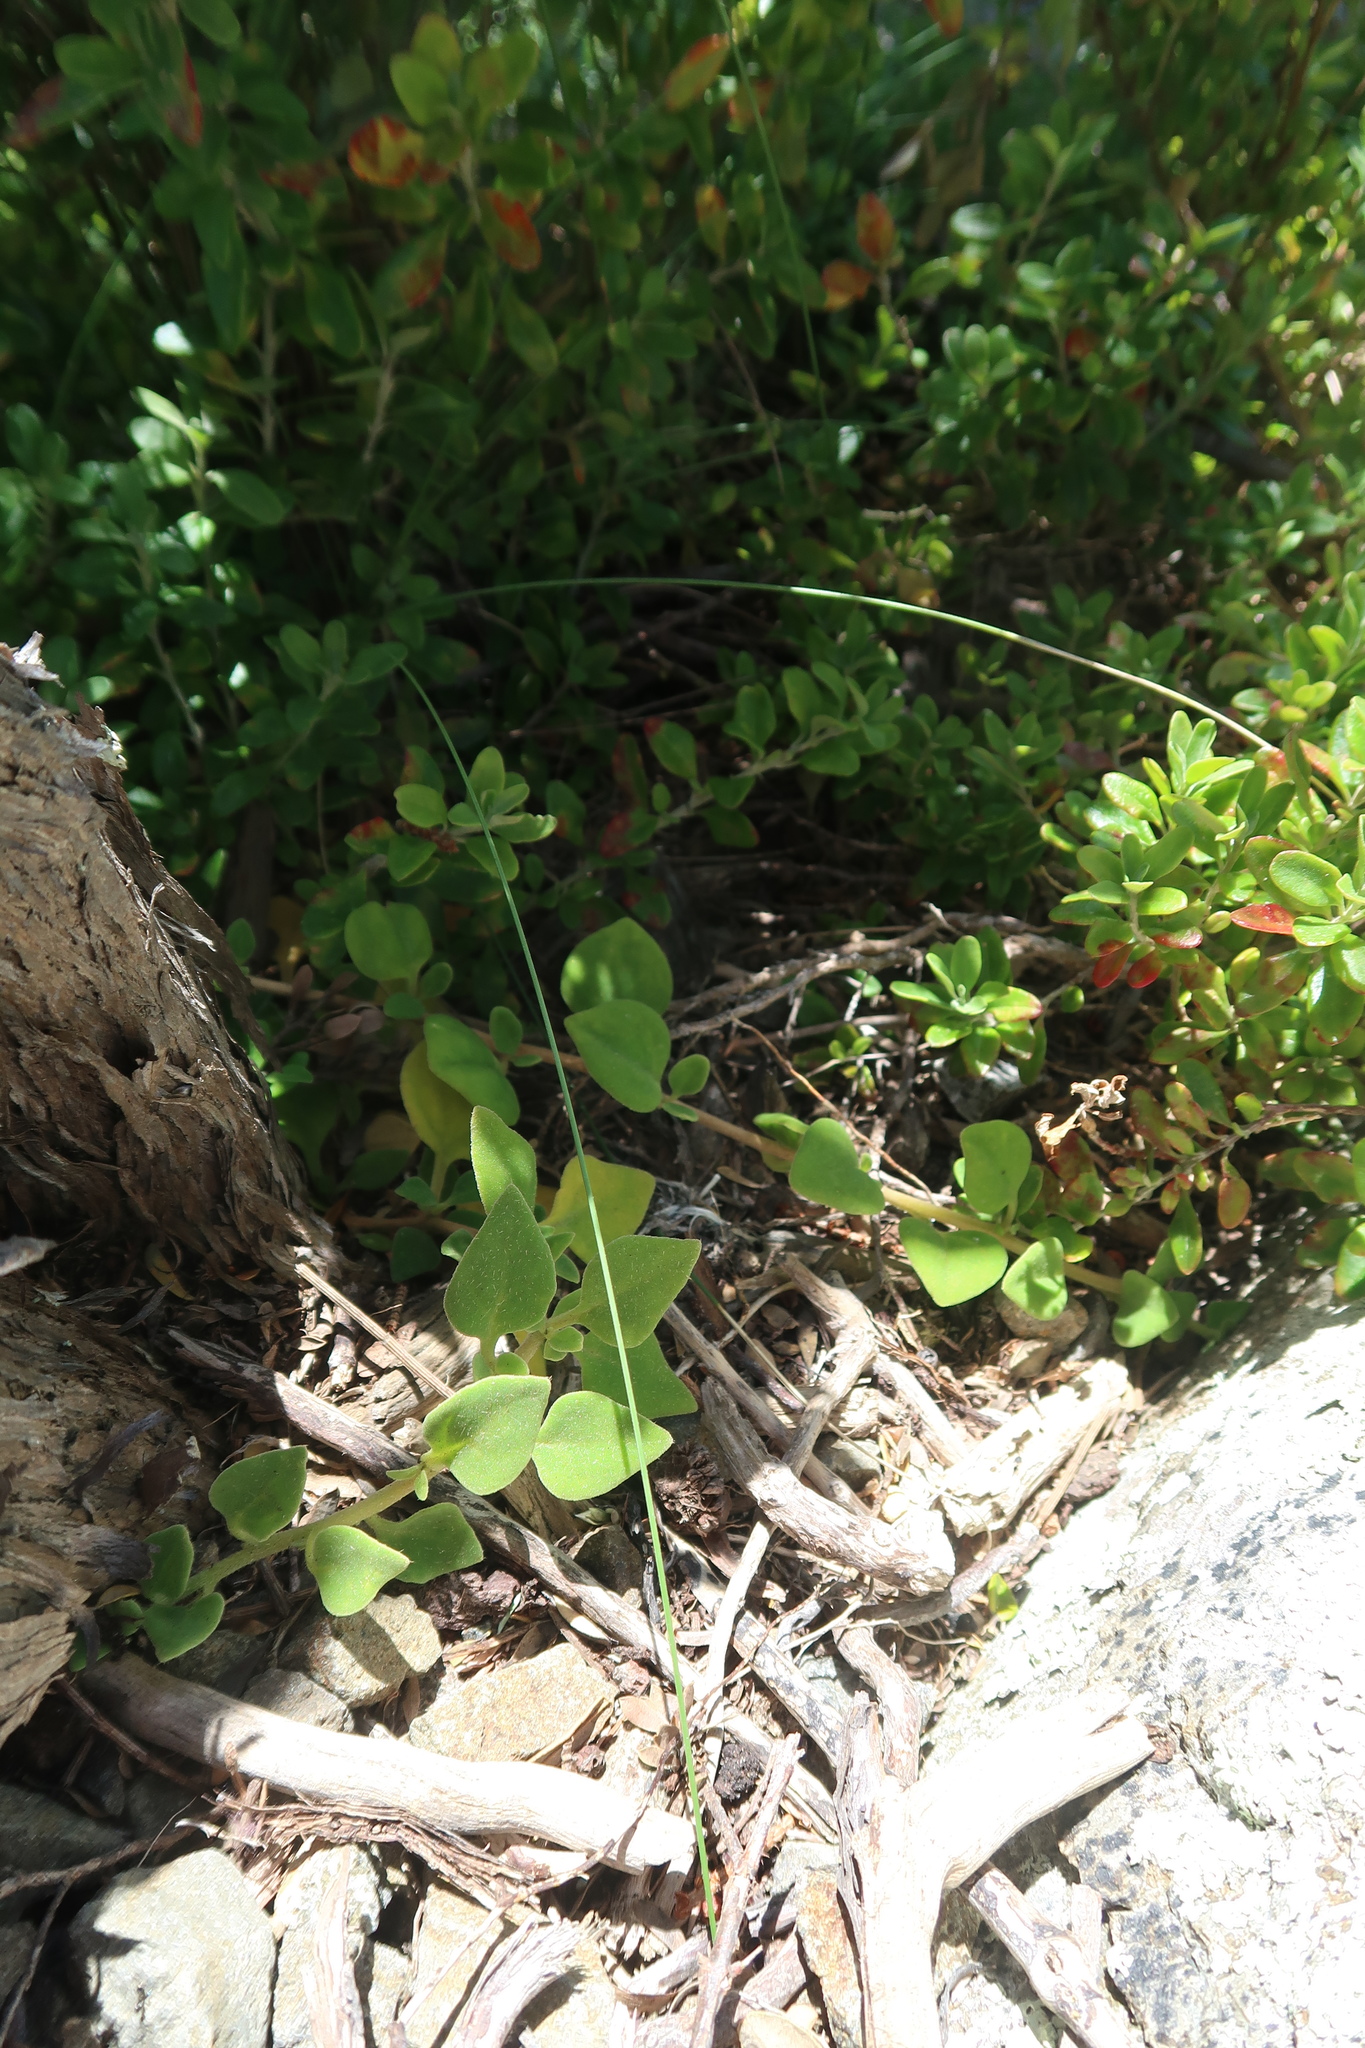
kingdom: Plantae
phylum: Tracheophyta
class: Magnoliopsida
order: Caryophyllales
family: Aizoaceae
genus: Tetragonia
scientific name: Tetragonia implexicoma
